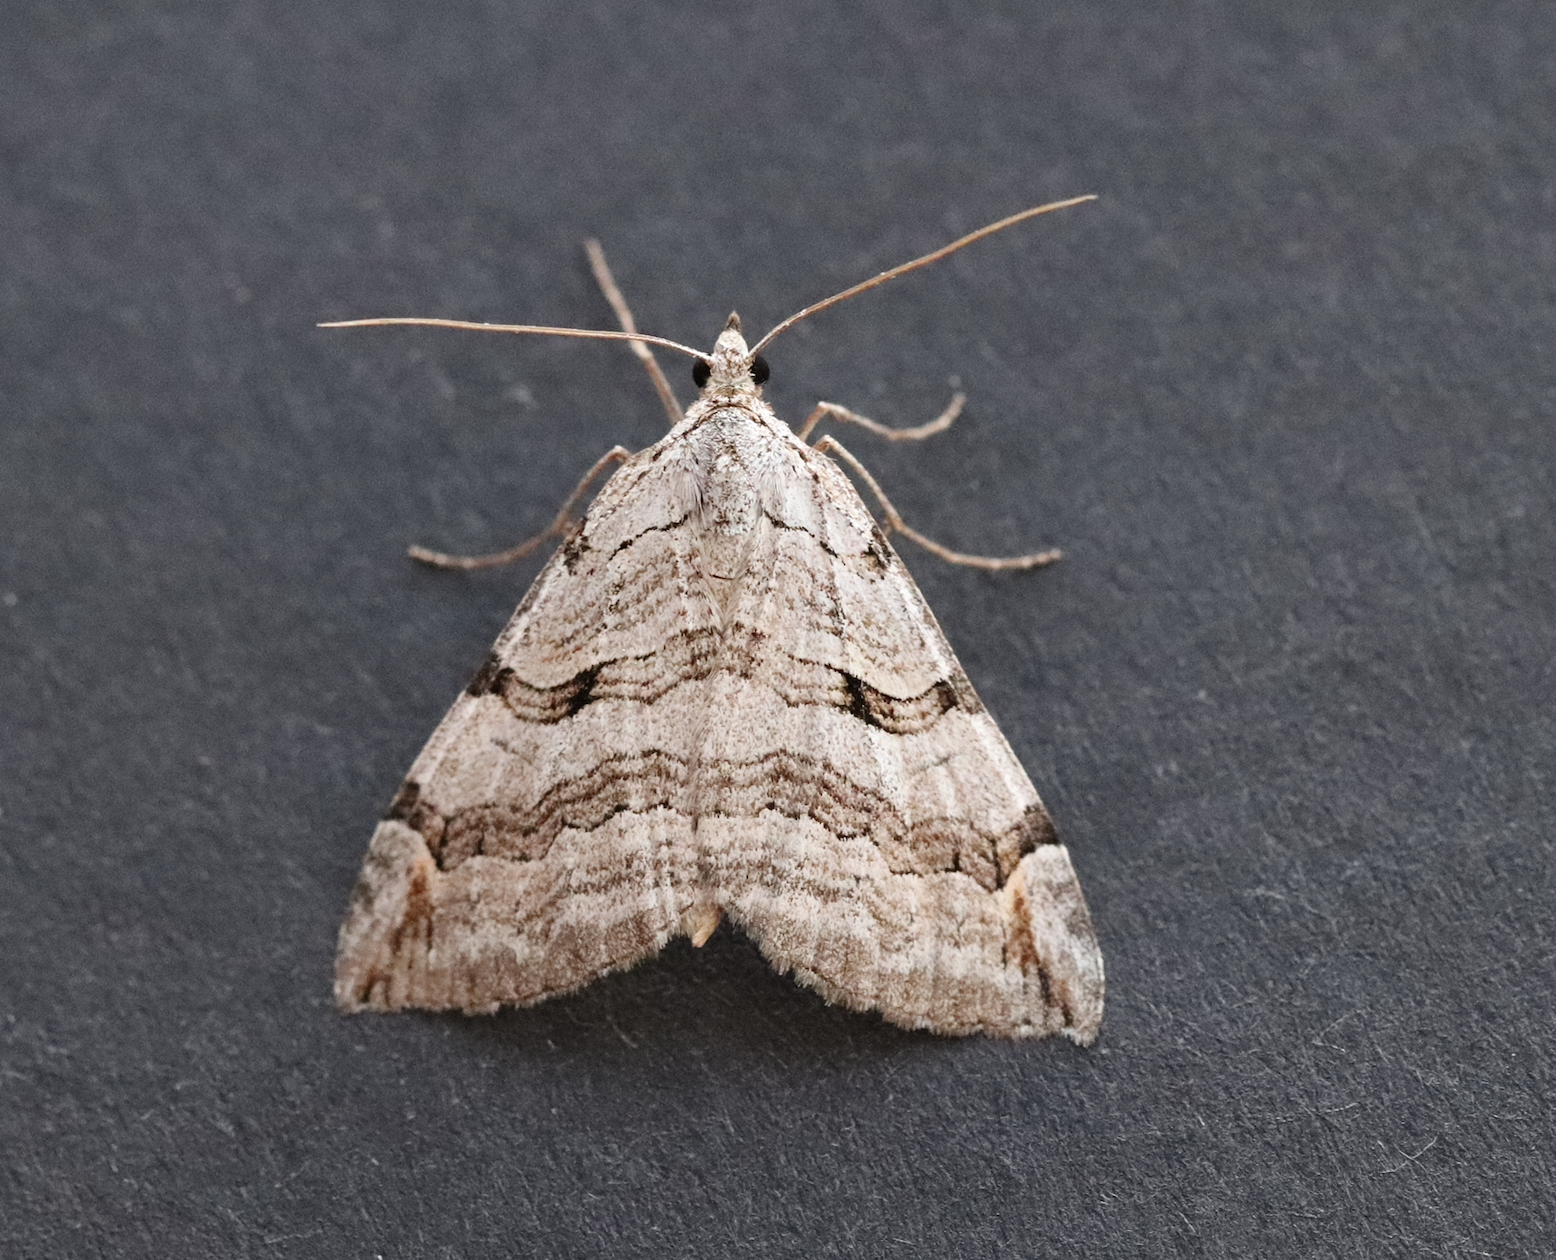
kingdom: Animalia
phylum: Arthropoda
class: Insecta
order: Lepidoptera
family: Geometridae
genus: Aplocera
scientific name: Aplocera plagiata
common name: Treble-bar
